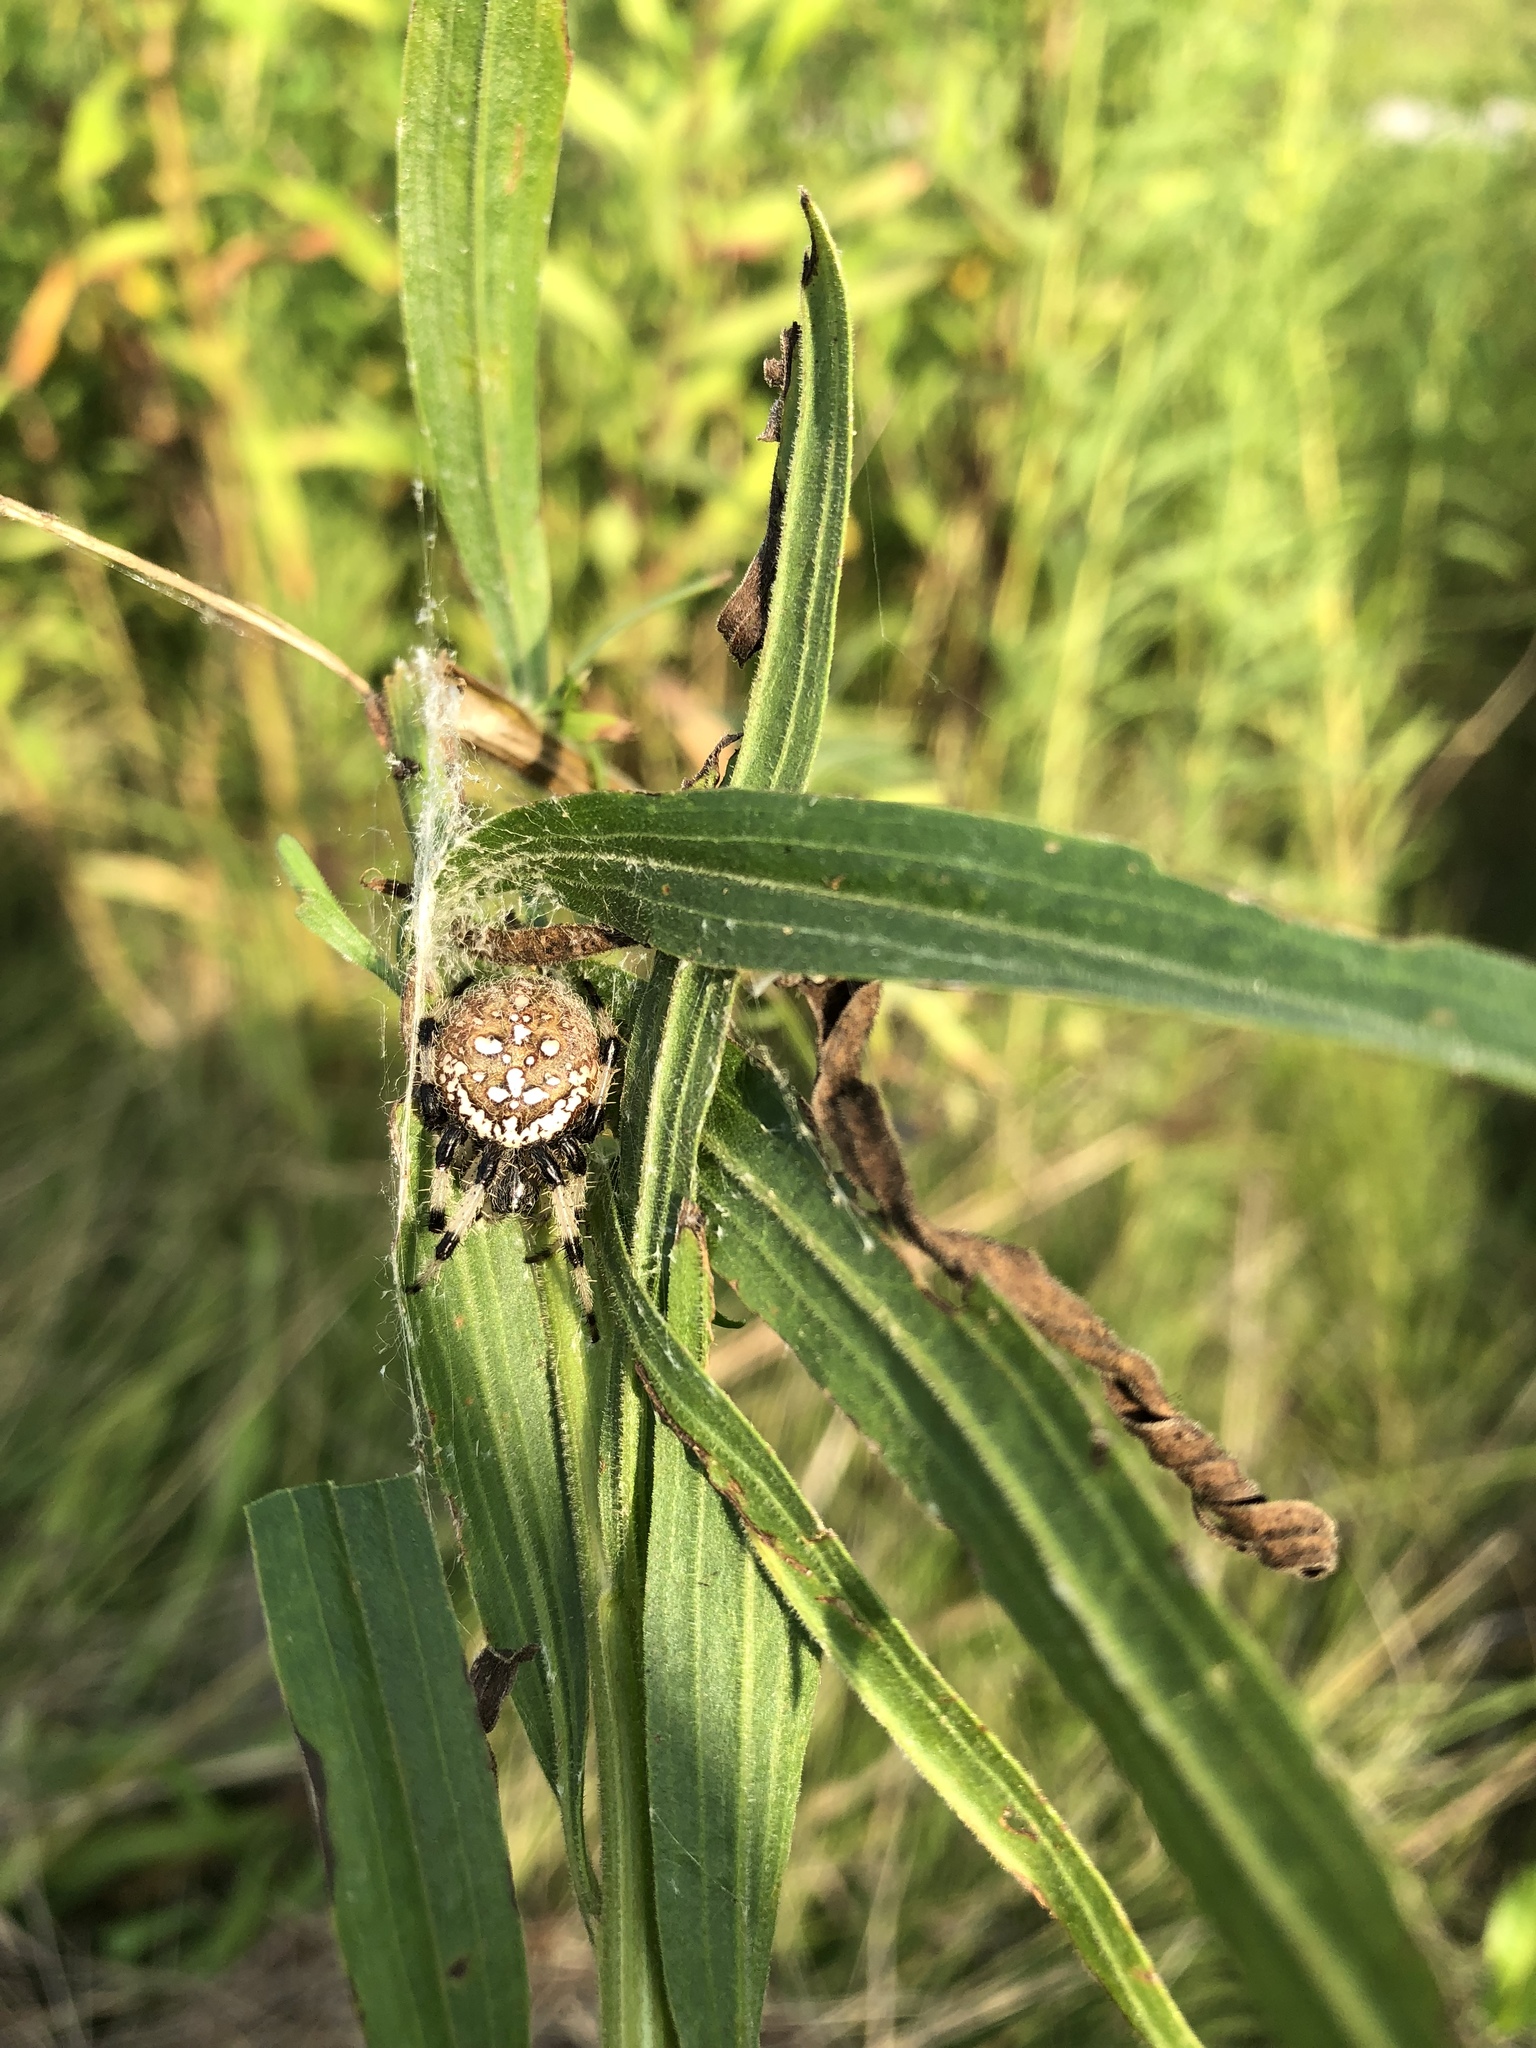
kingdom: Animalia
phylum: Arthropoda
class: Arachnida
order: Araneae
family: Araneidae
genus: Araneus
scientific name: Araneus trifolium
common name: Shamrock orbweaver
